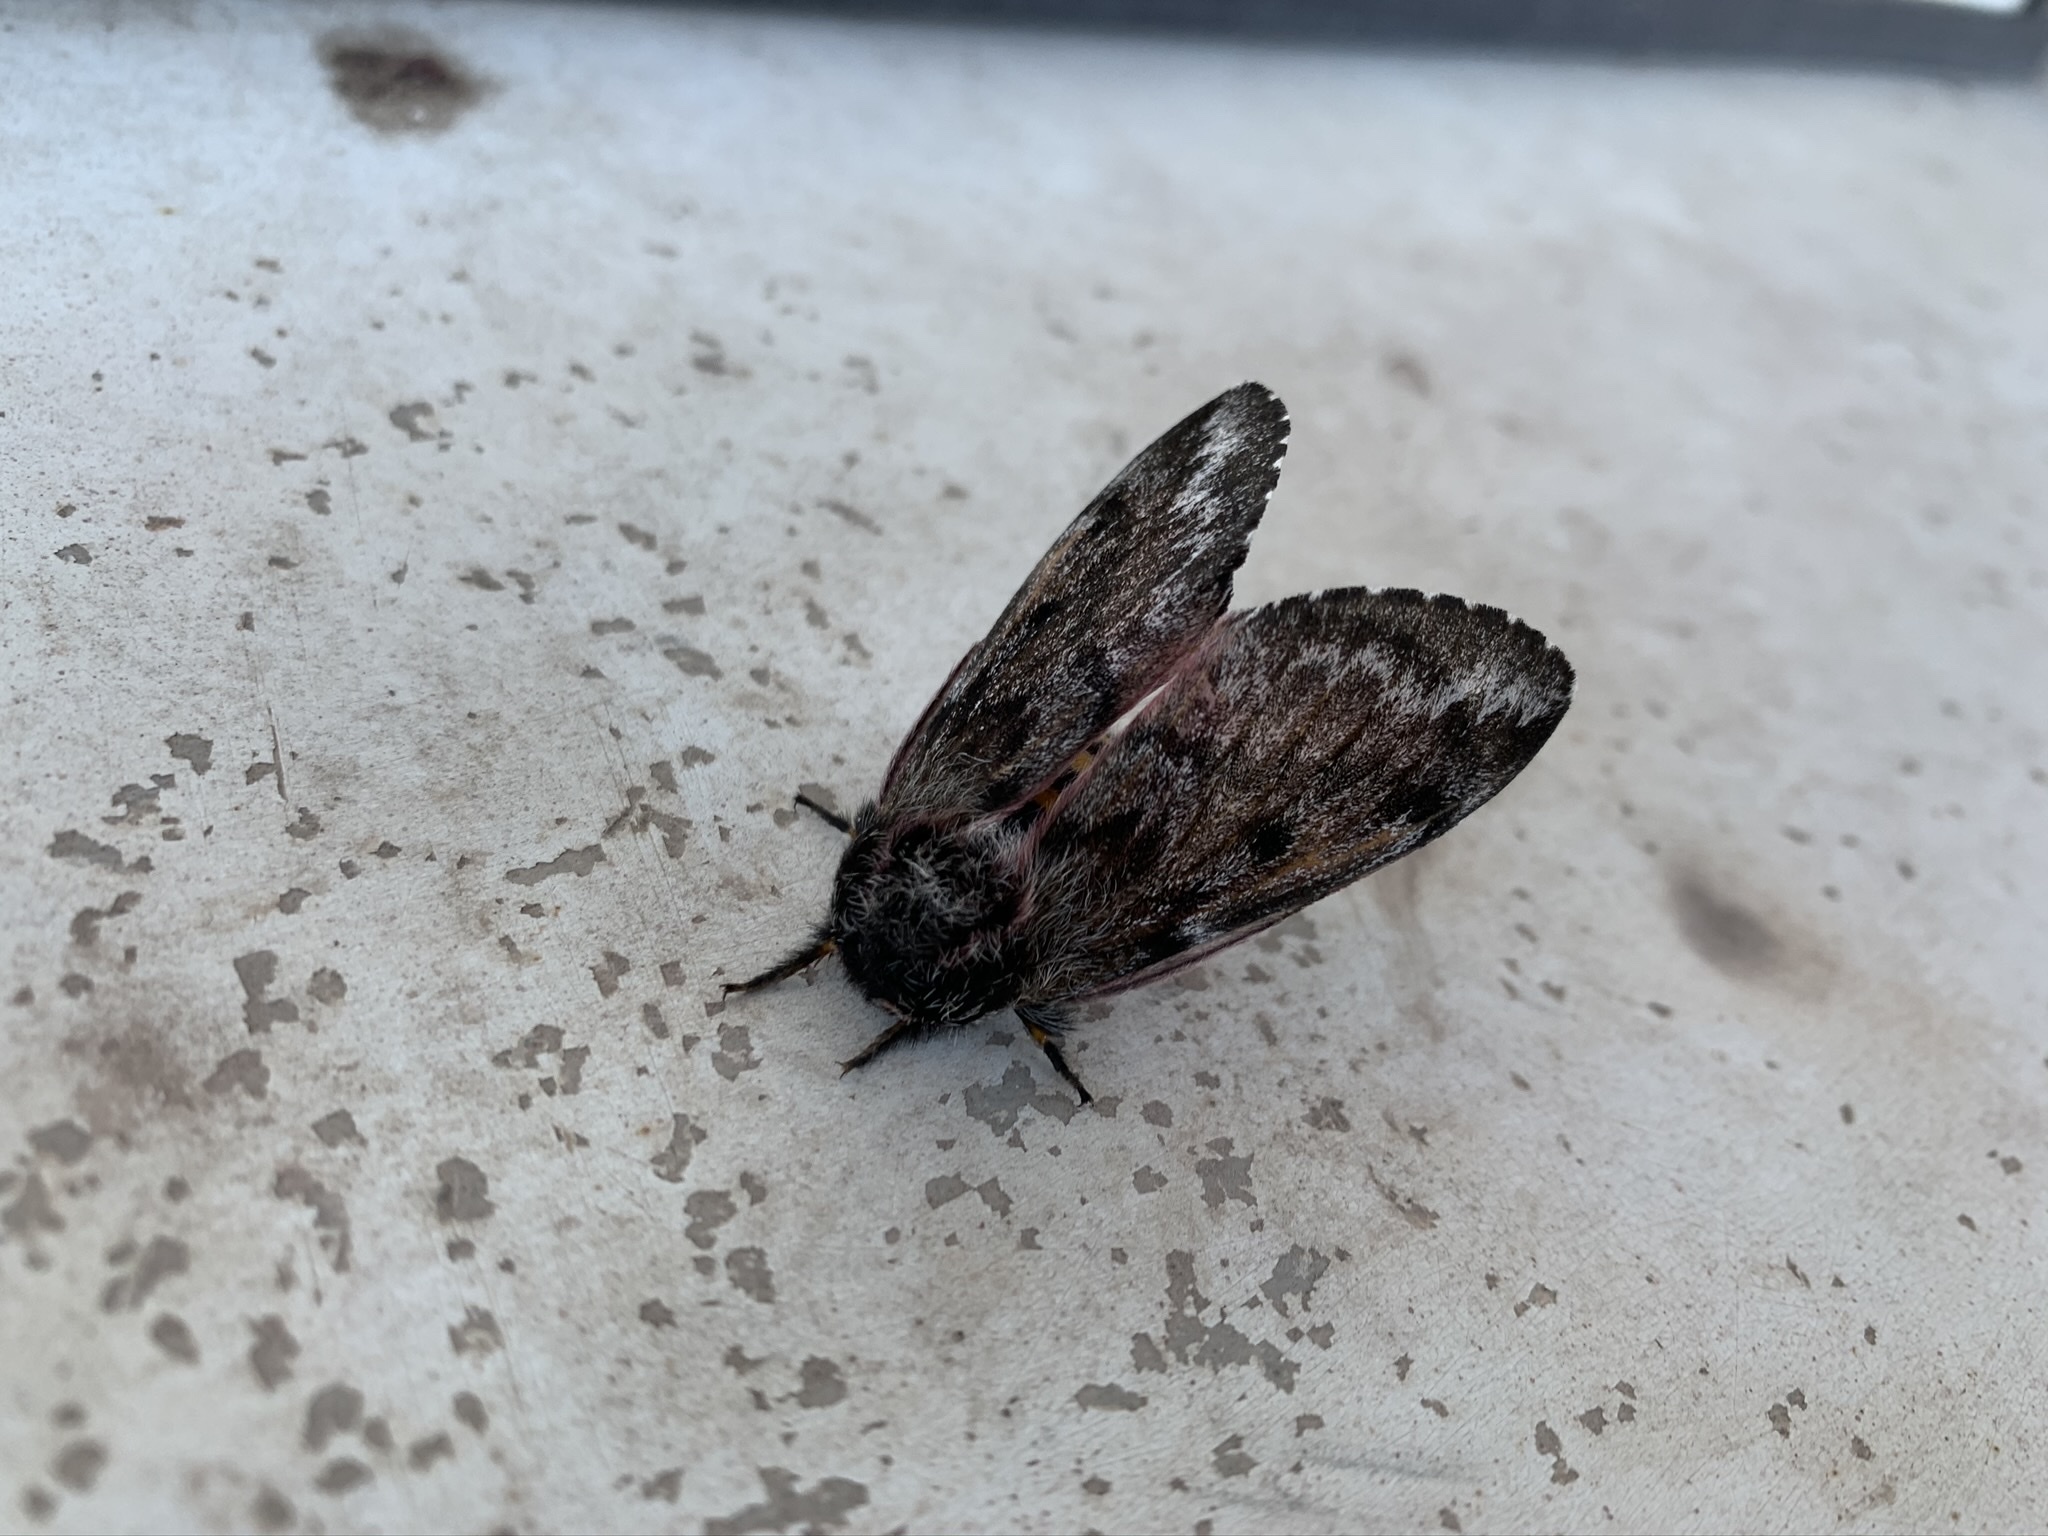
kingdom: Animalia
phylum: Arthropoda
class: Insecta
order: Lepidoptera
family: Saturniidae
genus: Coloradia
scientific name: Coloradia pandora
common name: Pandora pinemoth
